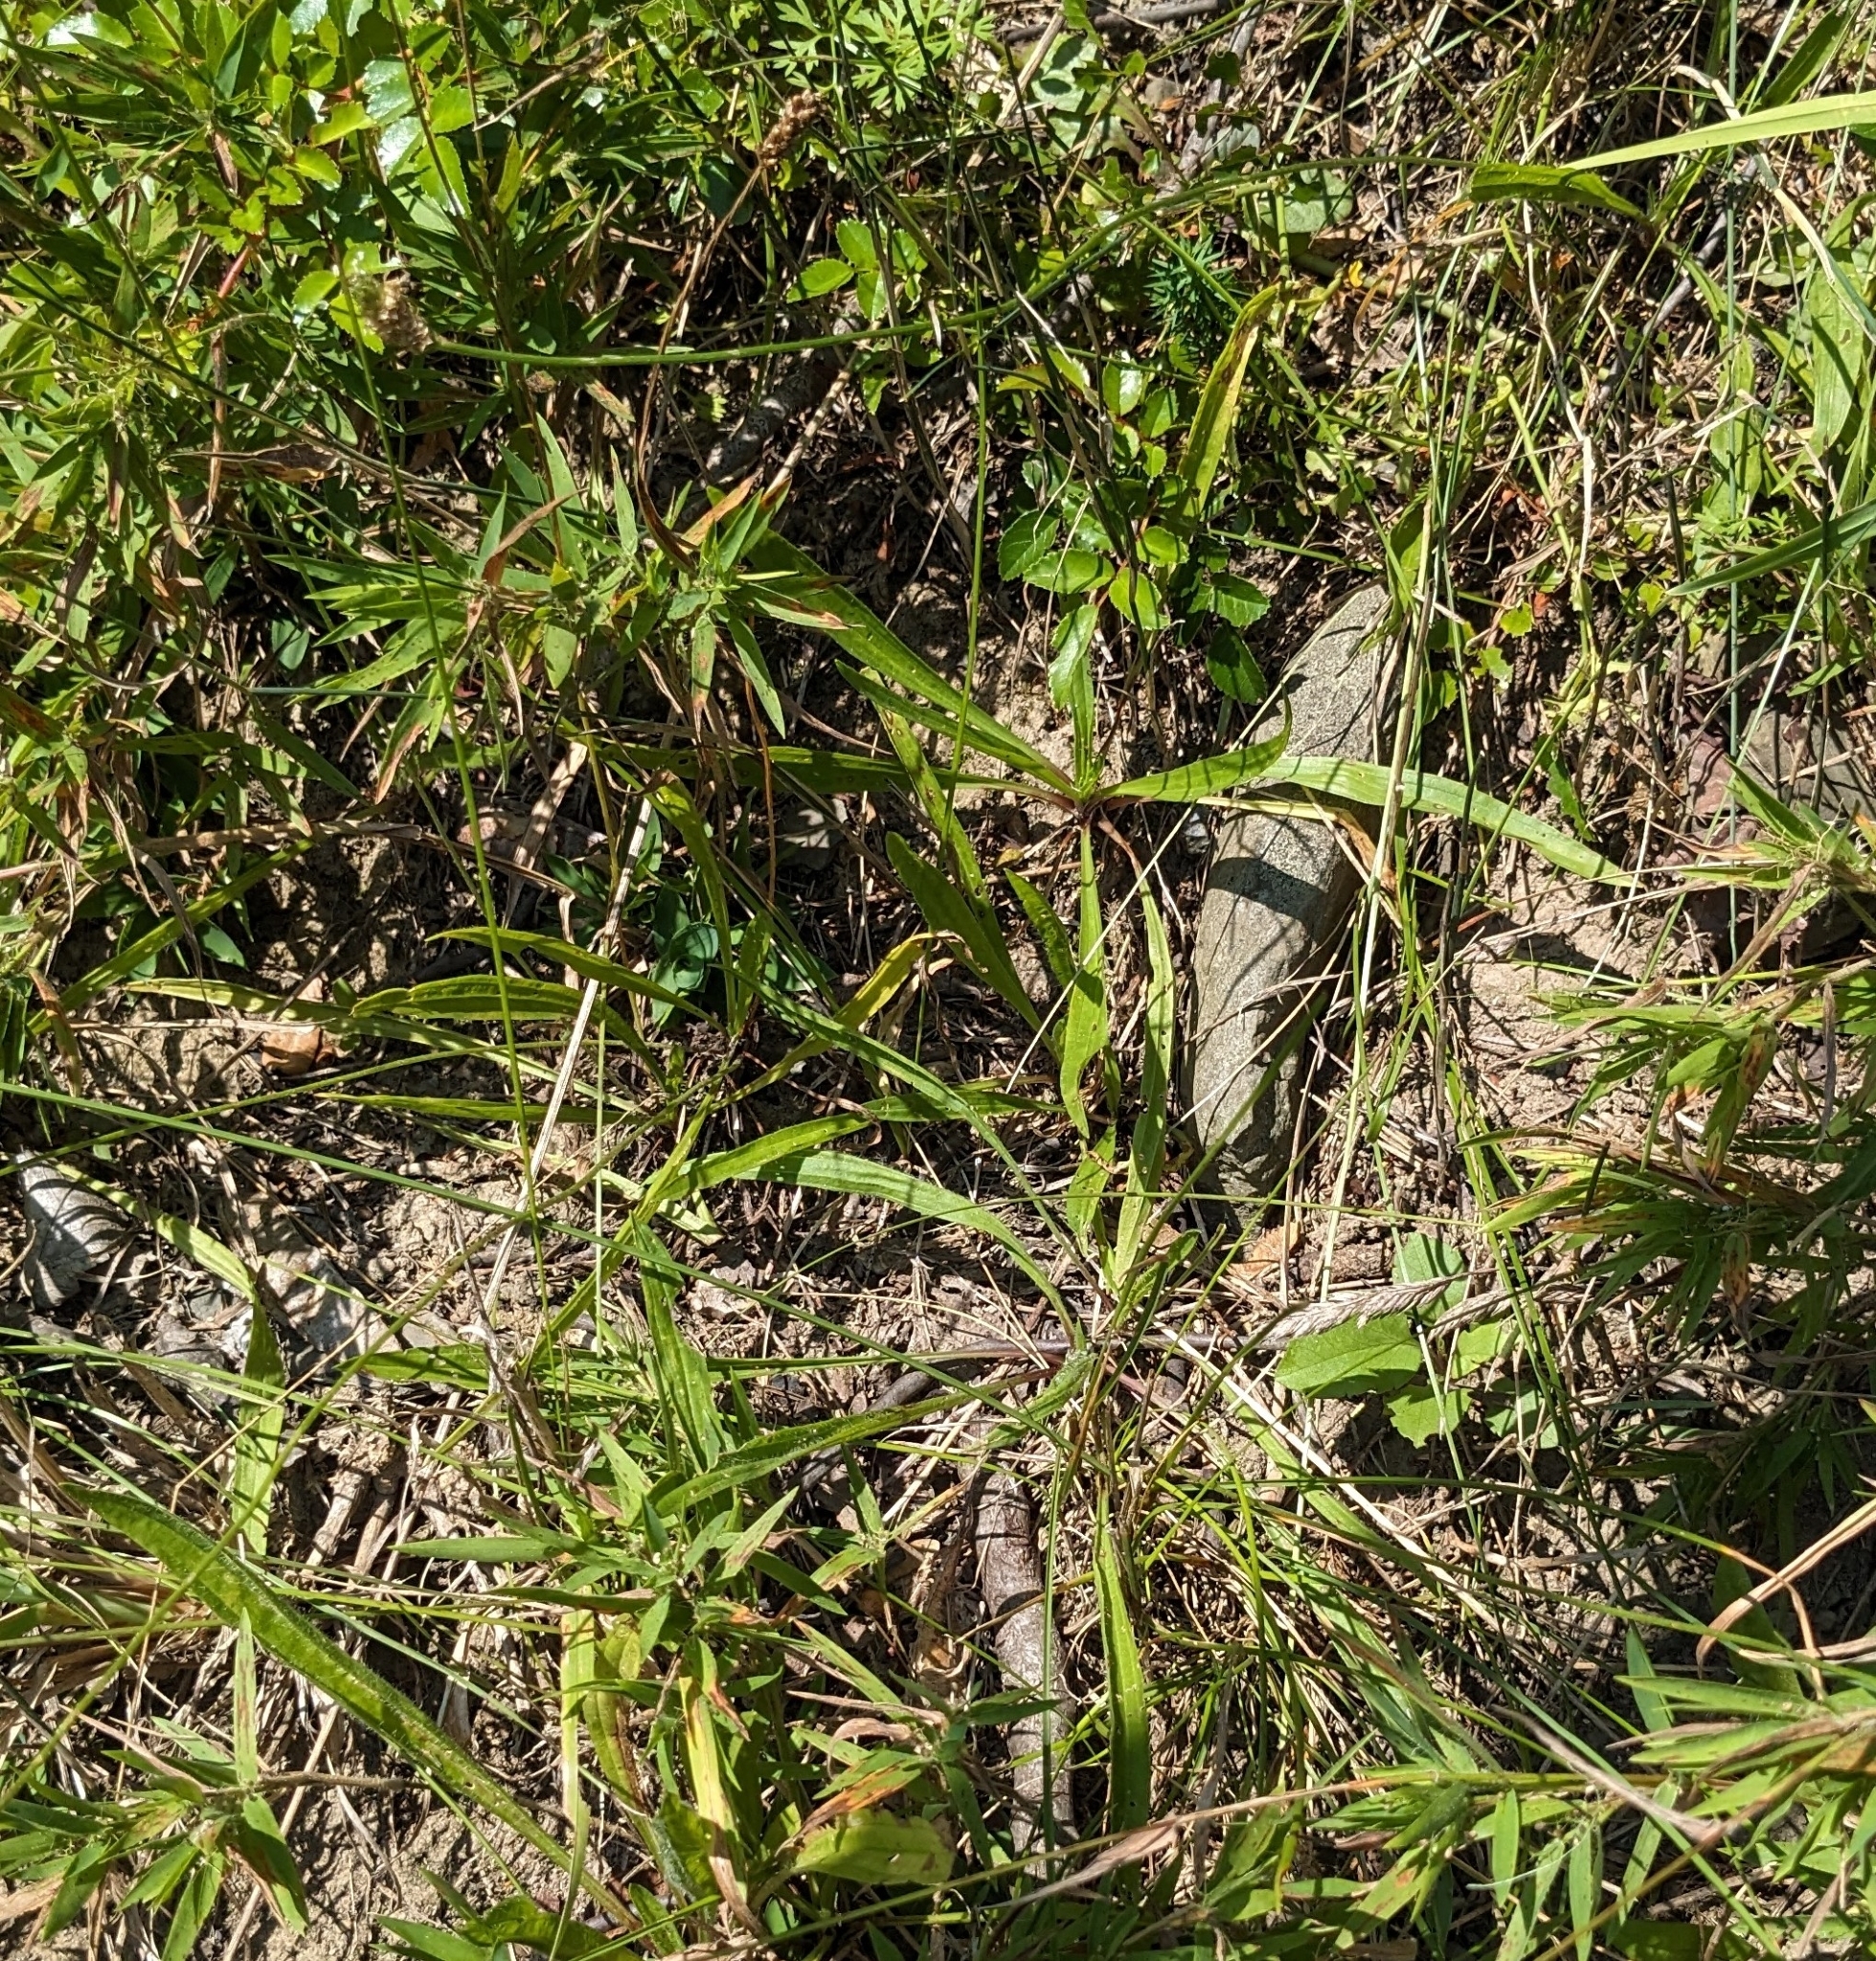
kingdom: Plantae
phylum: Tracheophyta
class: Magnoliopsida
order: Lamiales
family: Plantaginaceae
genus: Plantago
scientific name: Plantago lanceolata
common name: Ribwort plantain
